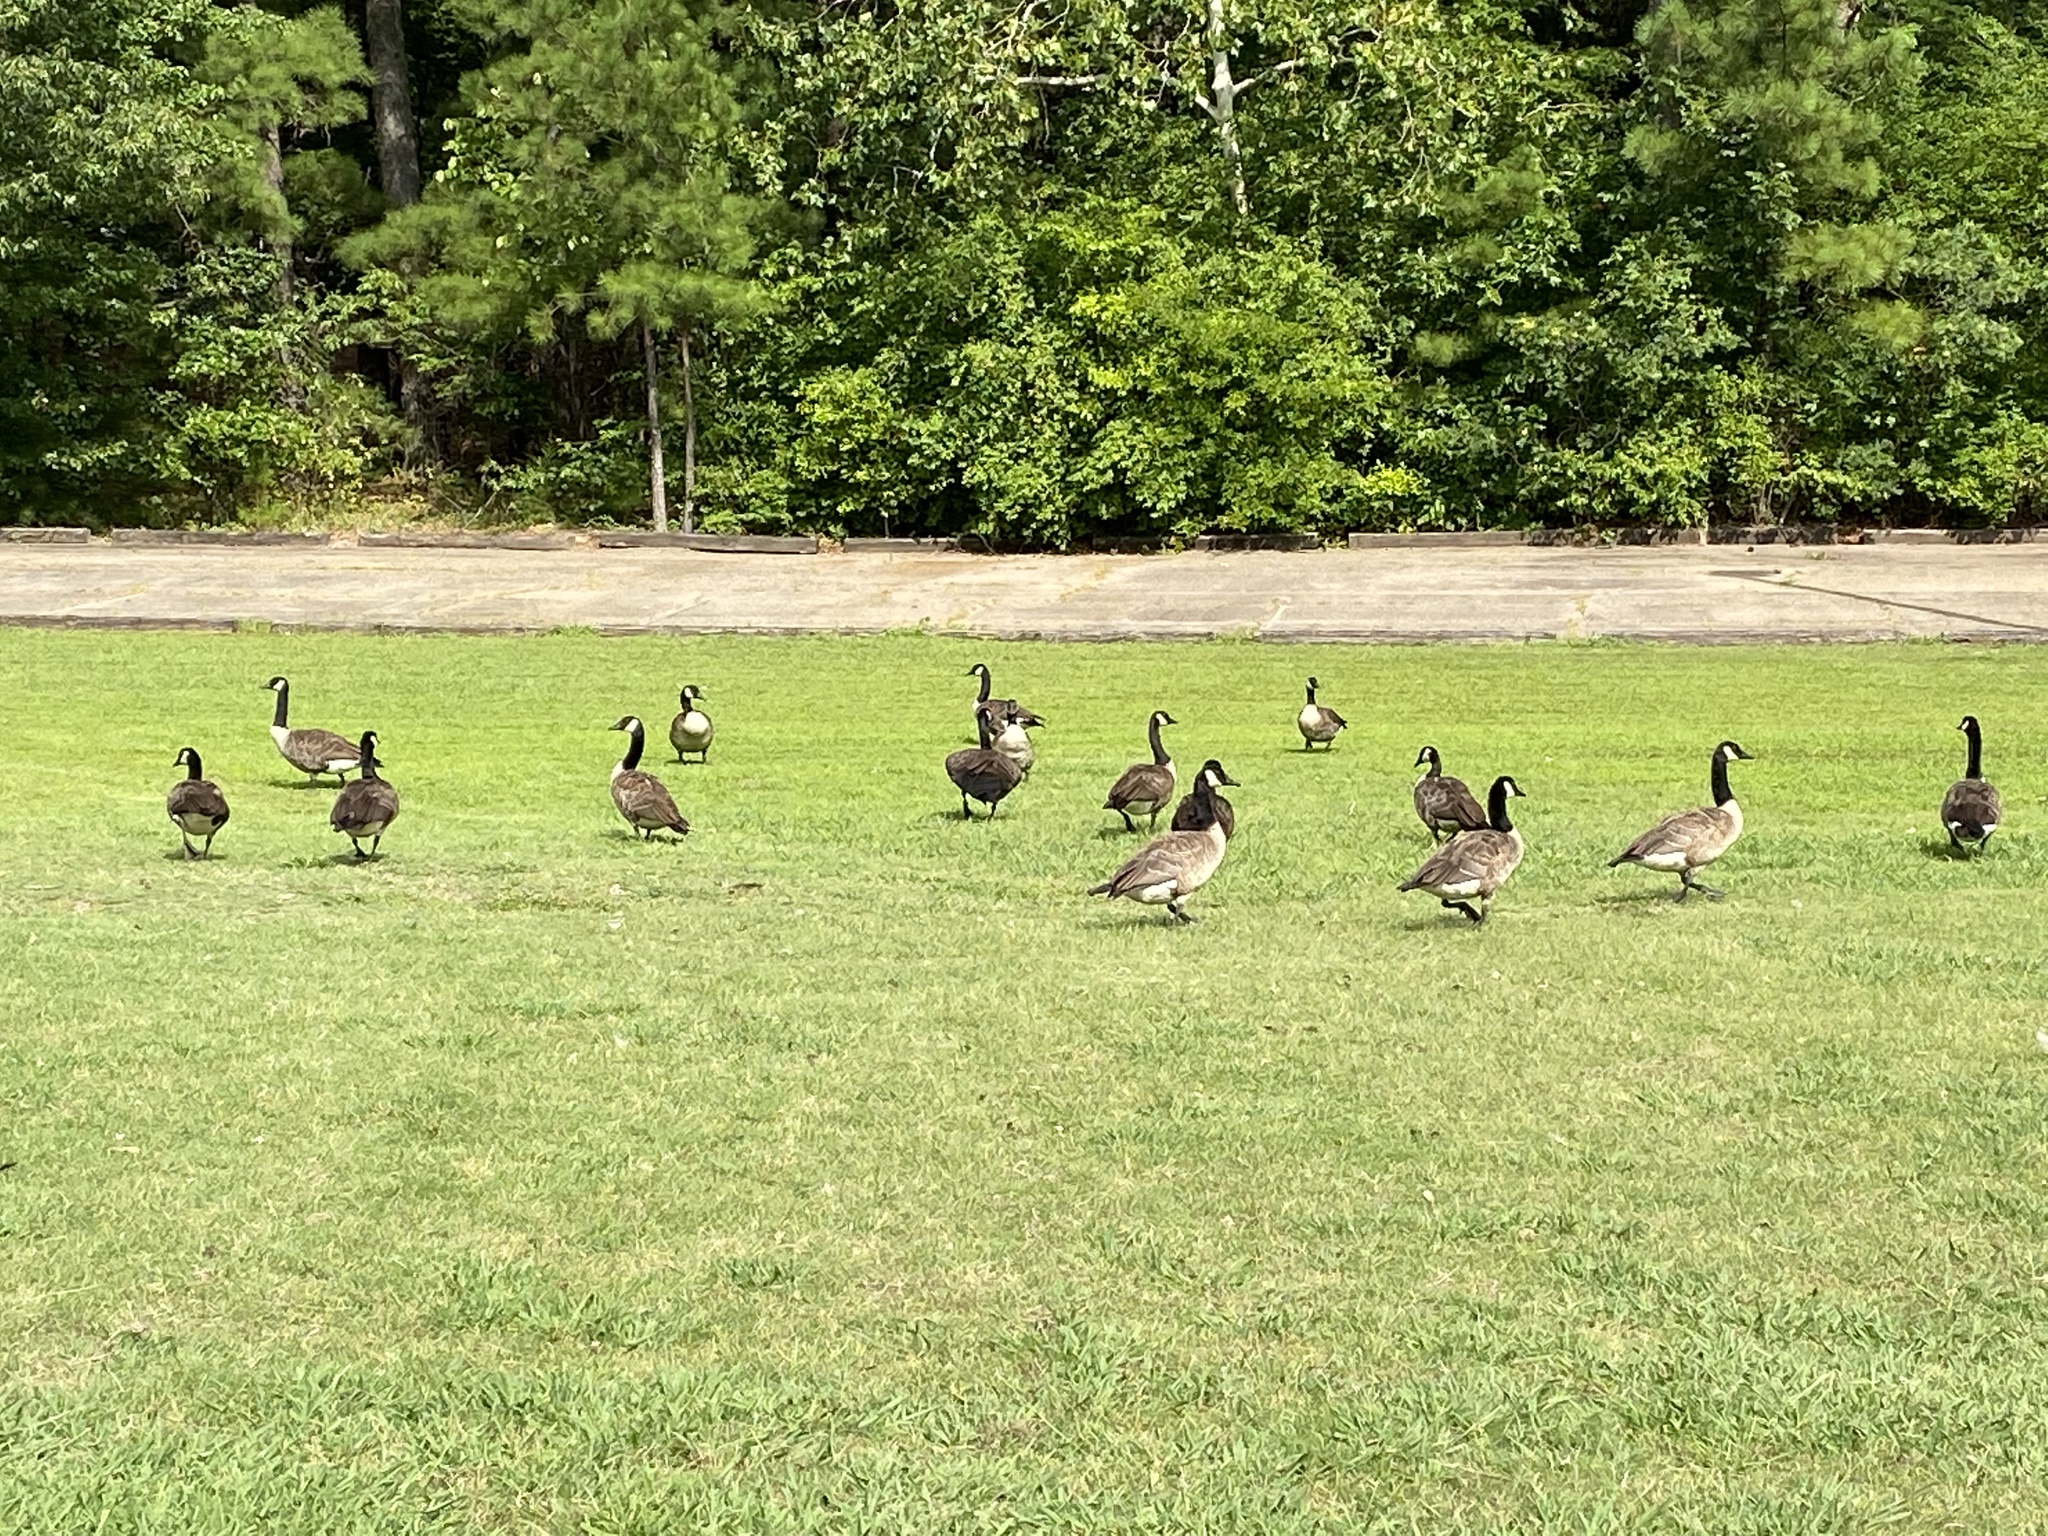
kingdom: Animalia
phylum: Chordata
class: Aves
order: Anseriformes
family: Anatidae
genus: Branta
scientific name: Branta canadensis
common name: Canada goose
